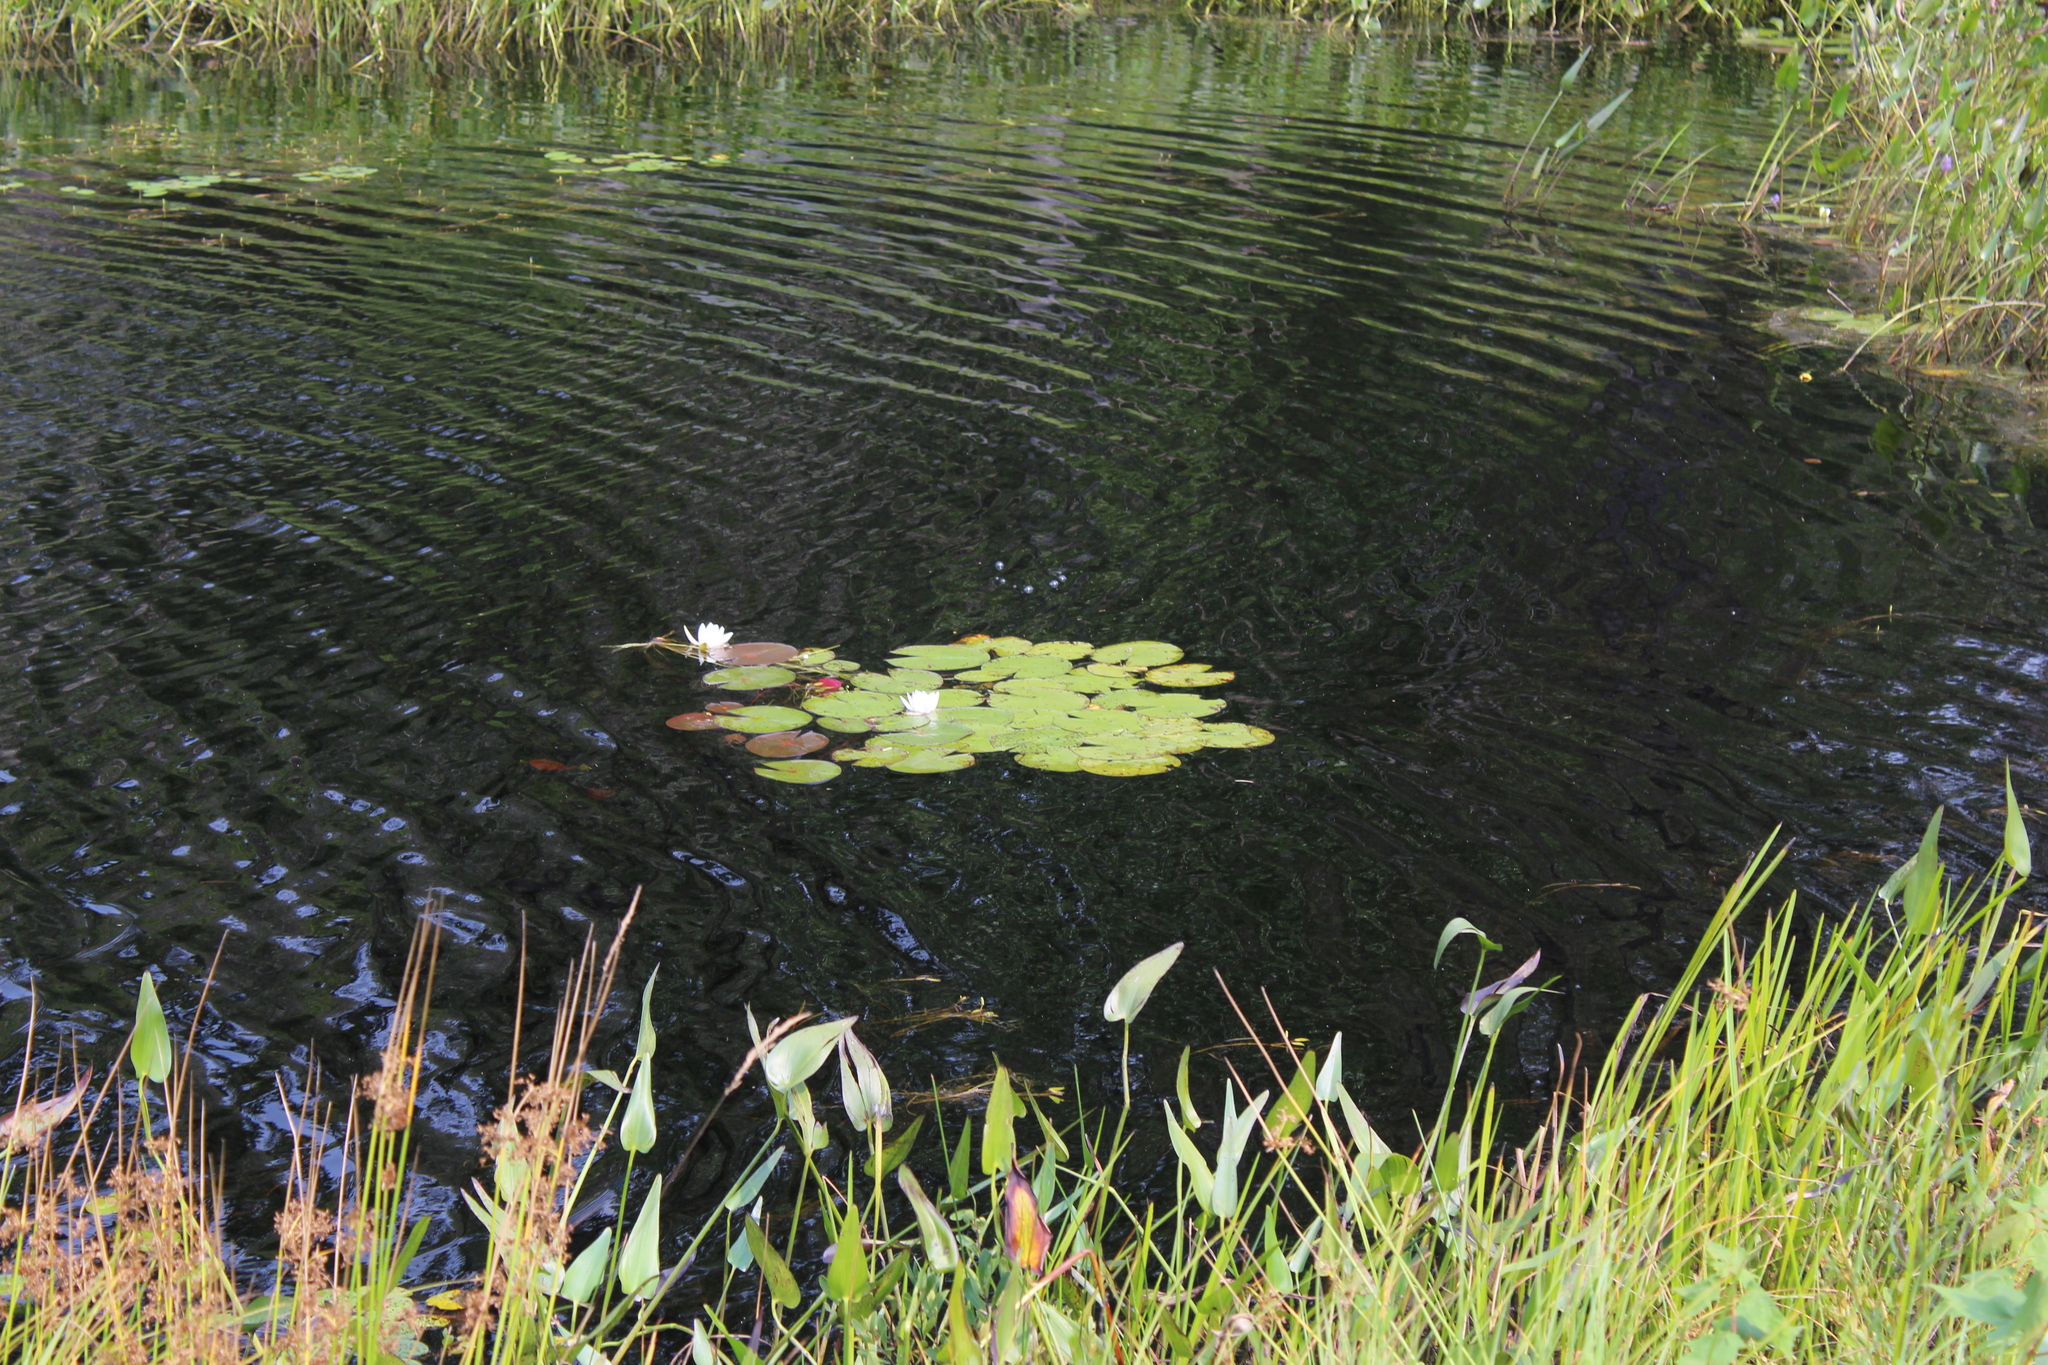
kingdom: Plantae
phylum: Tracheophyta
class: Magnoliopsida
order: Nymphaeales
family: Nymphaeaceae
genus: Nymphaea
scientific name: Nymphaea odorata
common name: Fragrant water-lily
